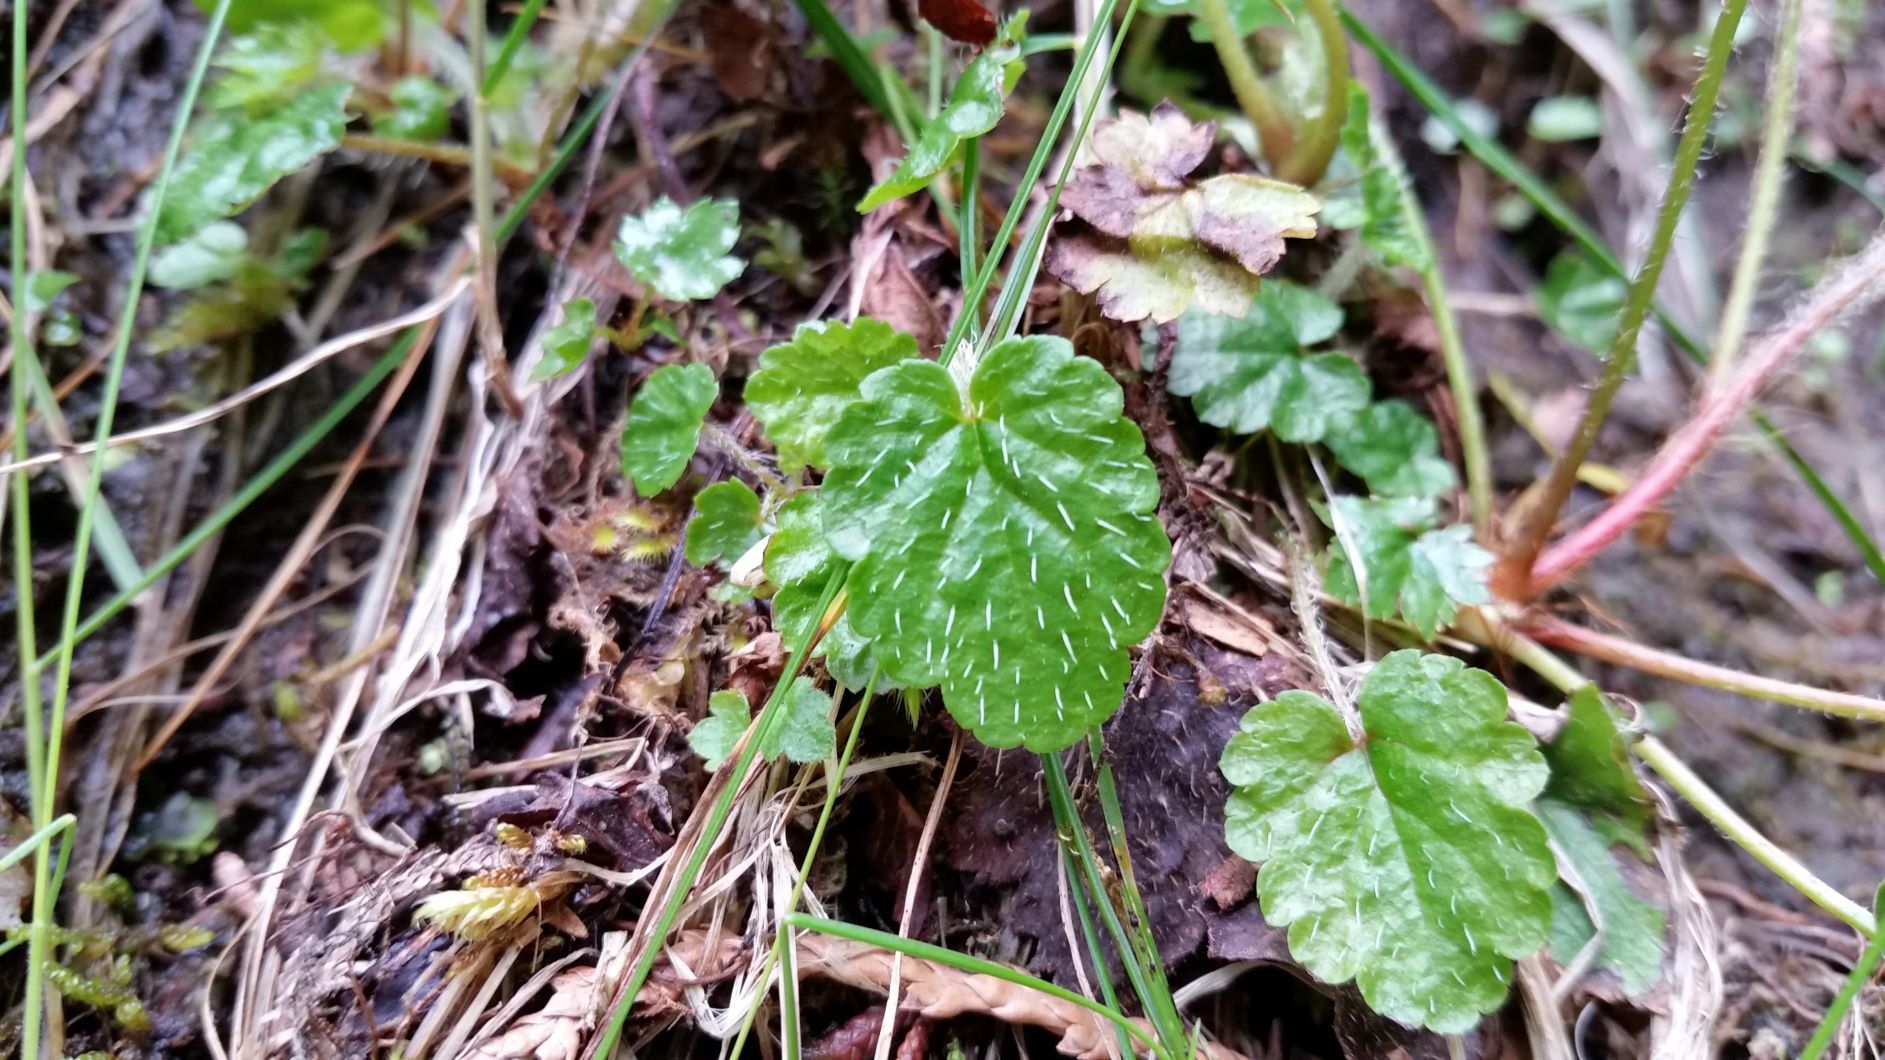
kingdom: Plantae
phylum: Tracheophyta
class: Magnoliopsida
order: Saxifragales
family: Saxifragaceae
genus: Brewerimitella
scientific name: Brewerimitella ovalis
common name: Coastal bishop's-cap
